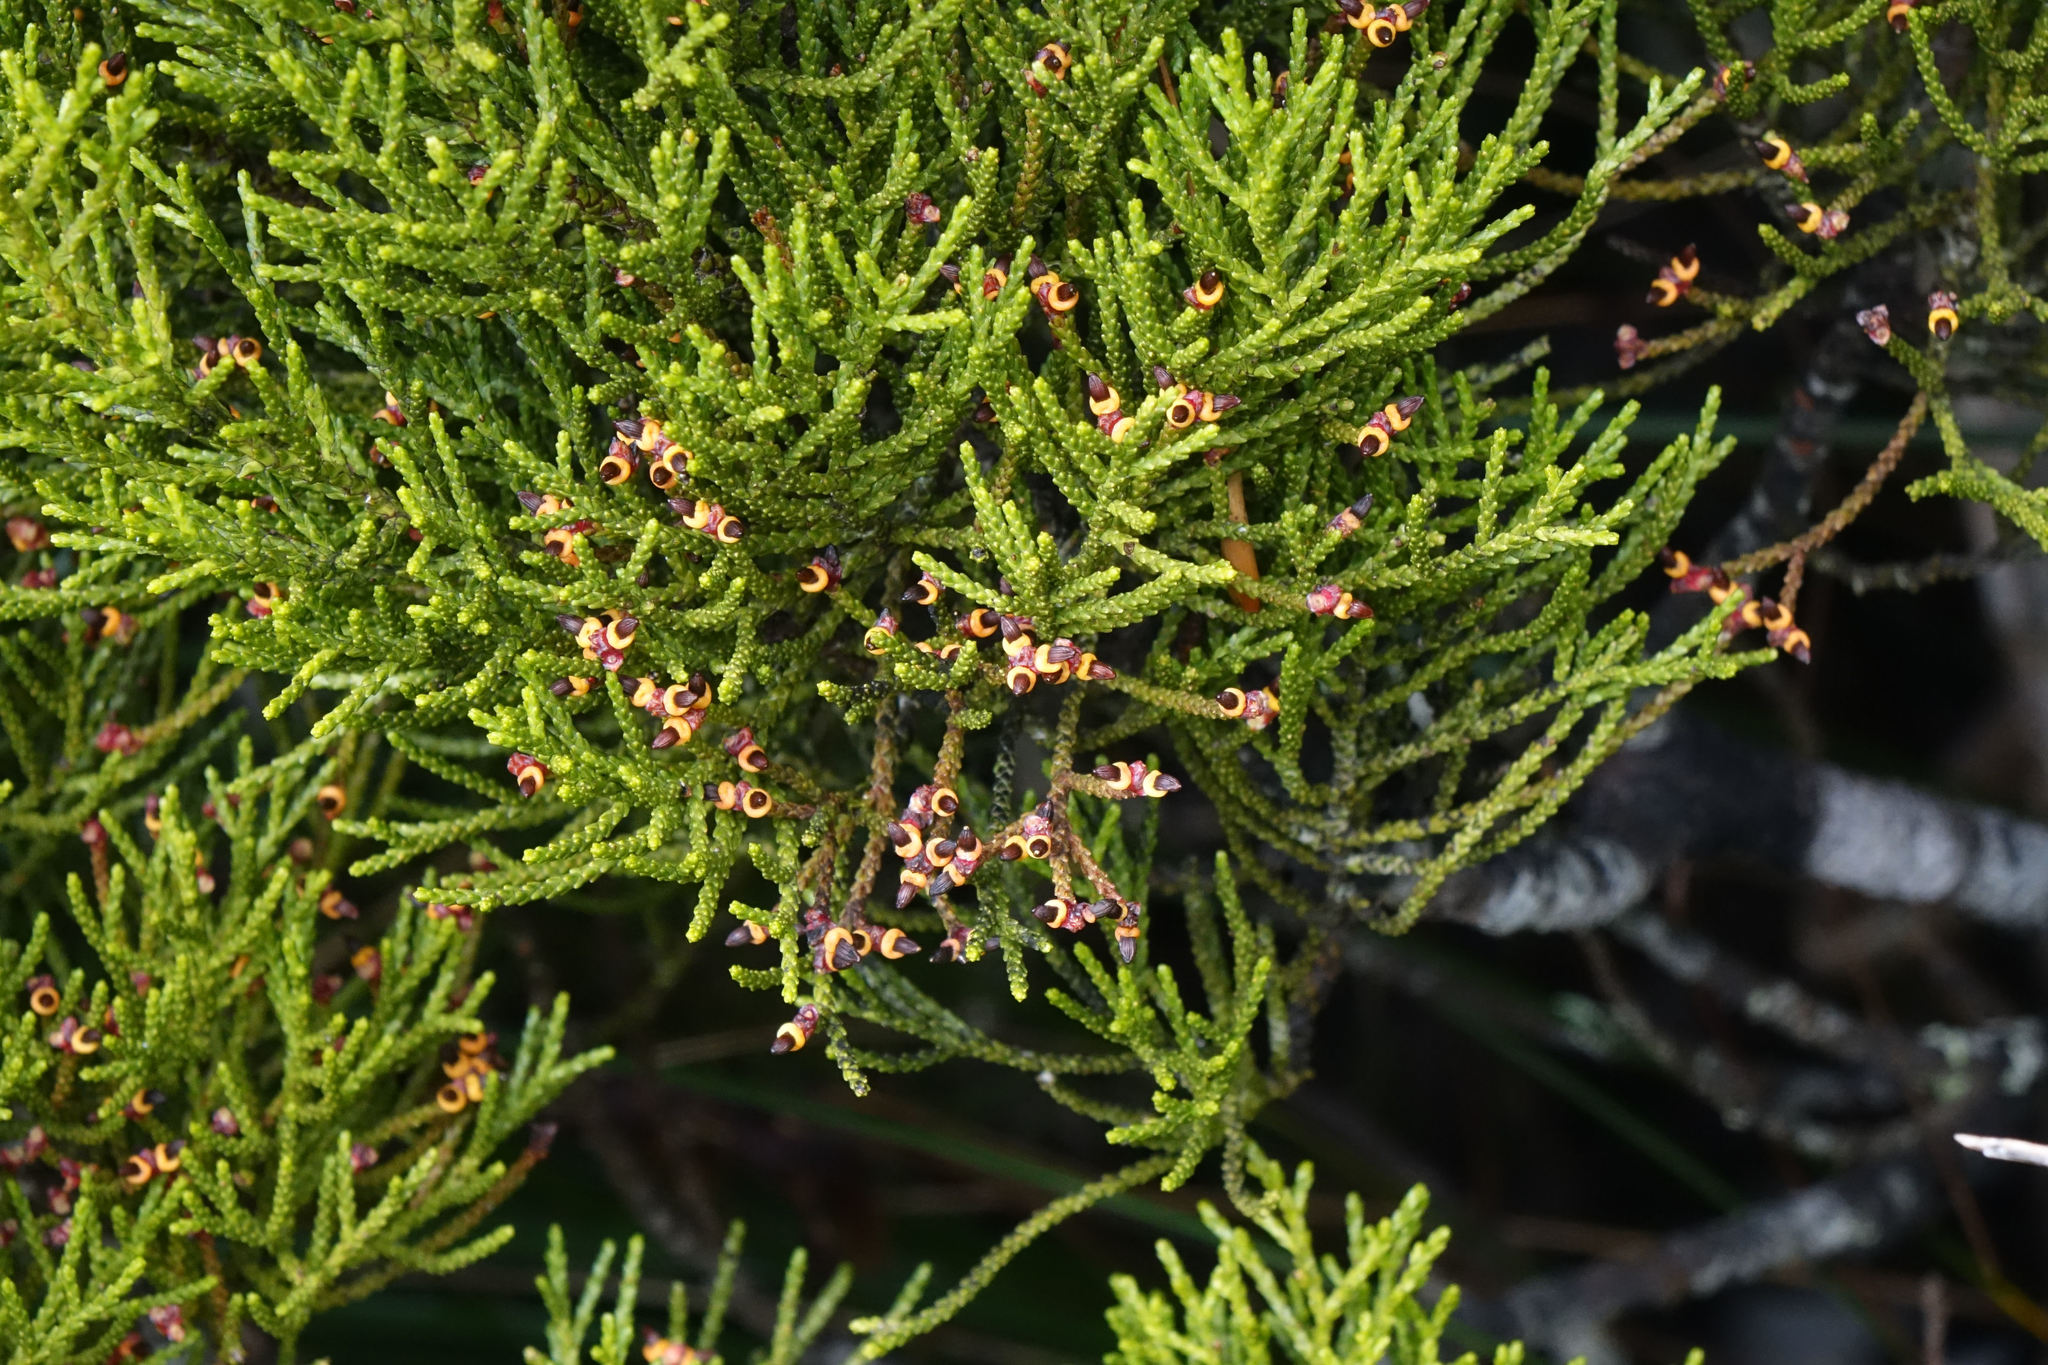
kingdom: Plantae
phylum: Tracheophyta
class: Pinopsida
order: Pinales
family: Podocarpaceae
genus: Halocarpus
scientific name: Halocarpus biformis
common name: Alpine tarwood
